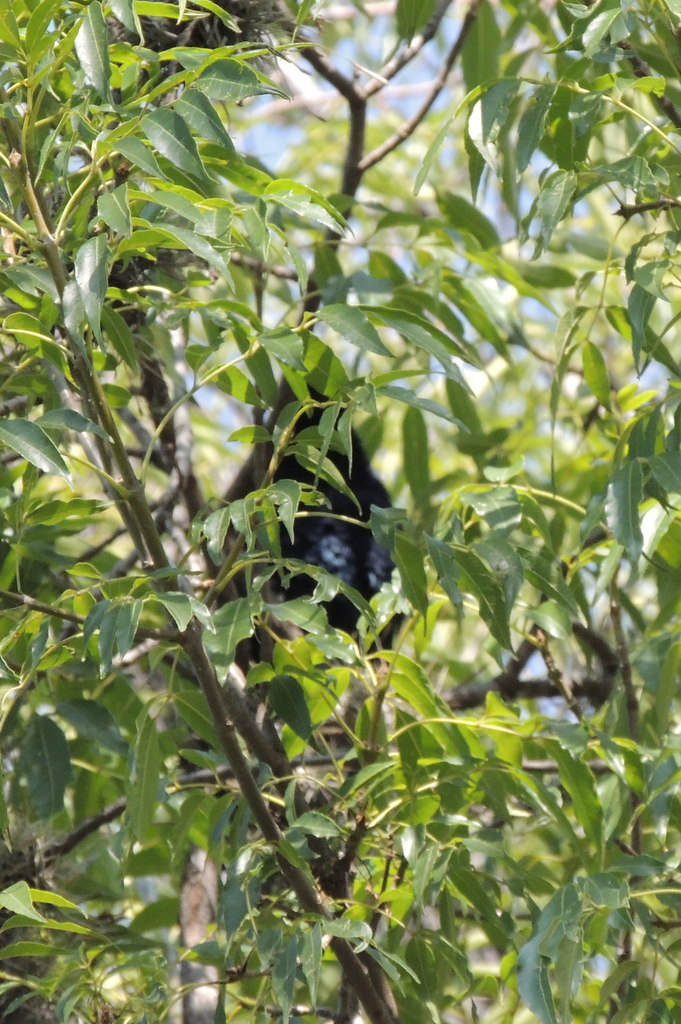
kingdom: Animalia
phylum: Chordata
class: Aves
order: Passeriformes
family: Icteridae
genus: Quiscalus
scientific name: Quiscalus mexicanus
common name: Great-tailed grackle
